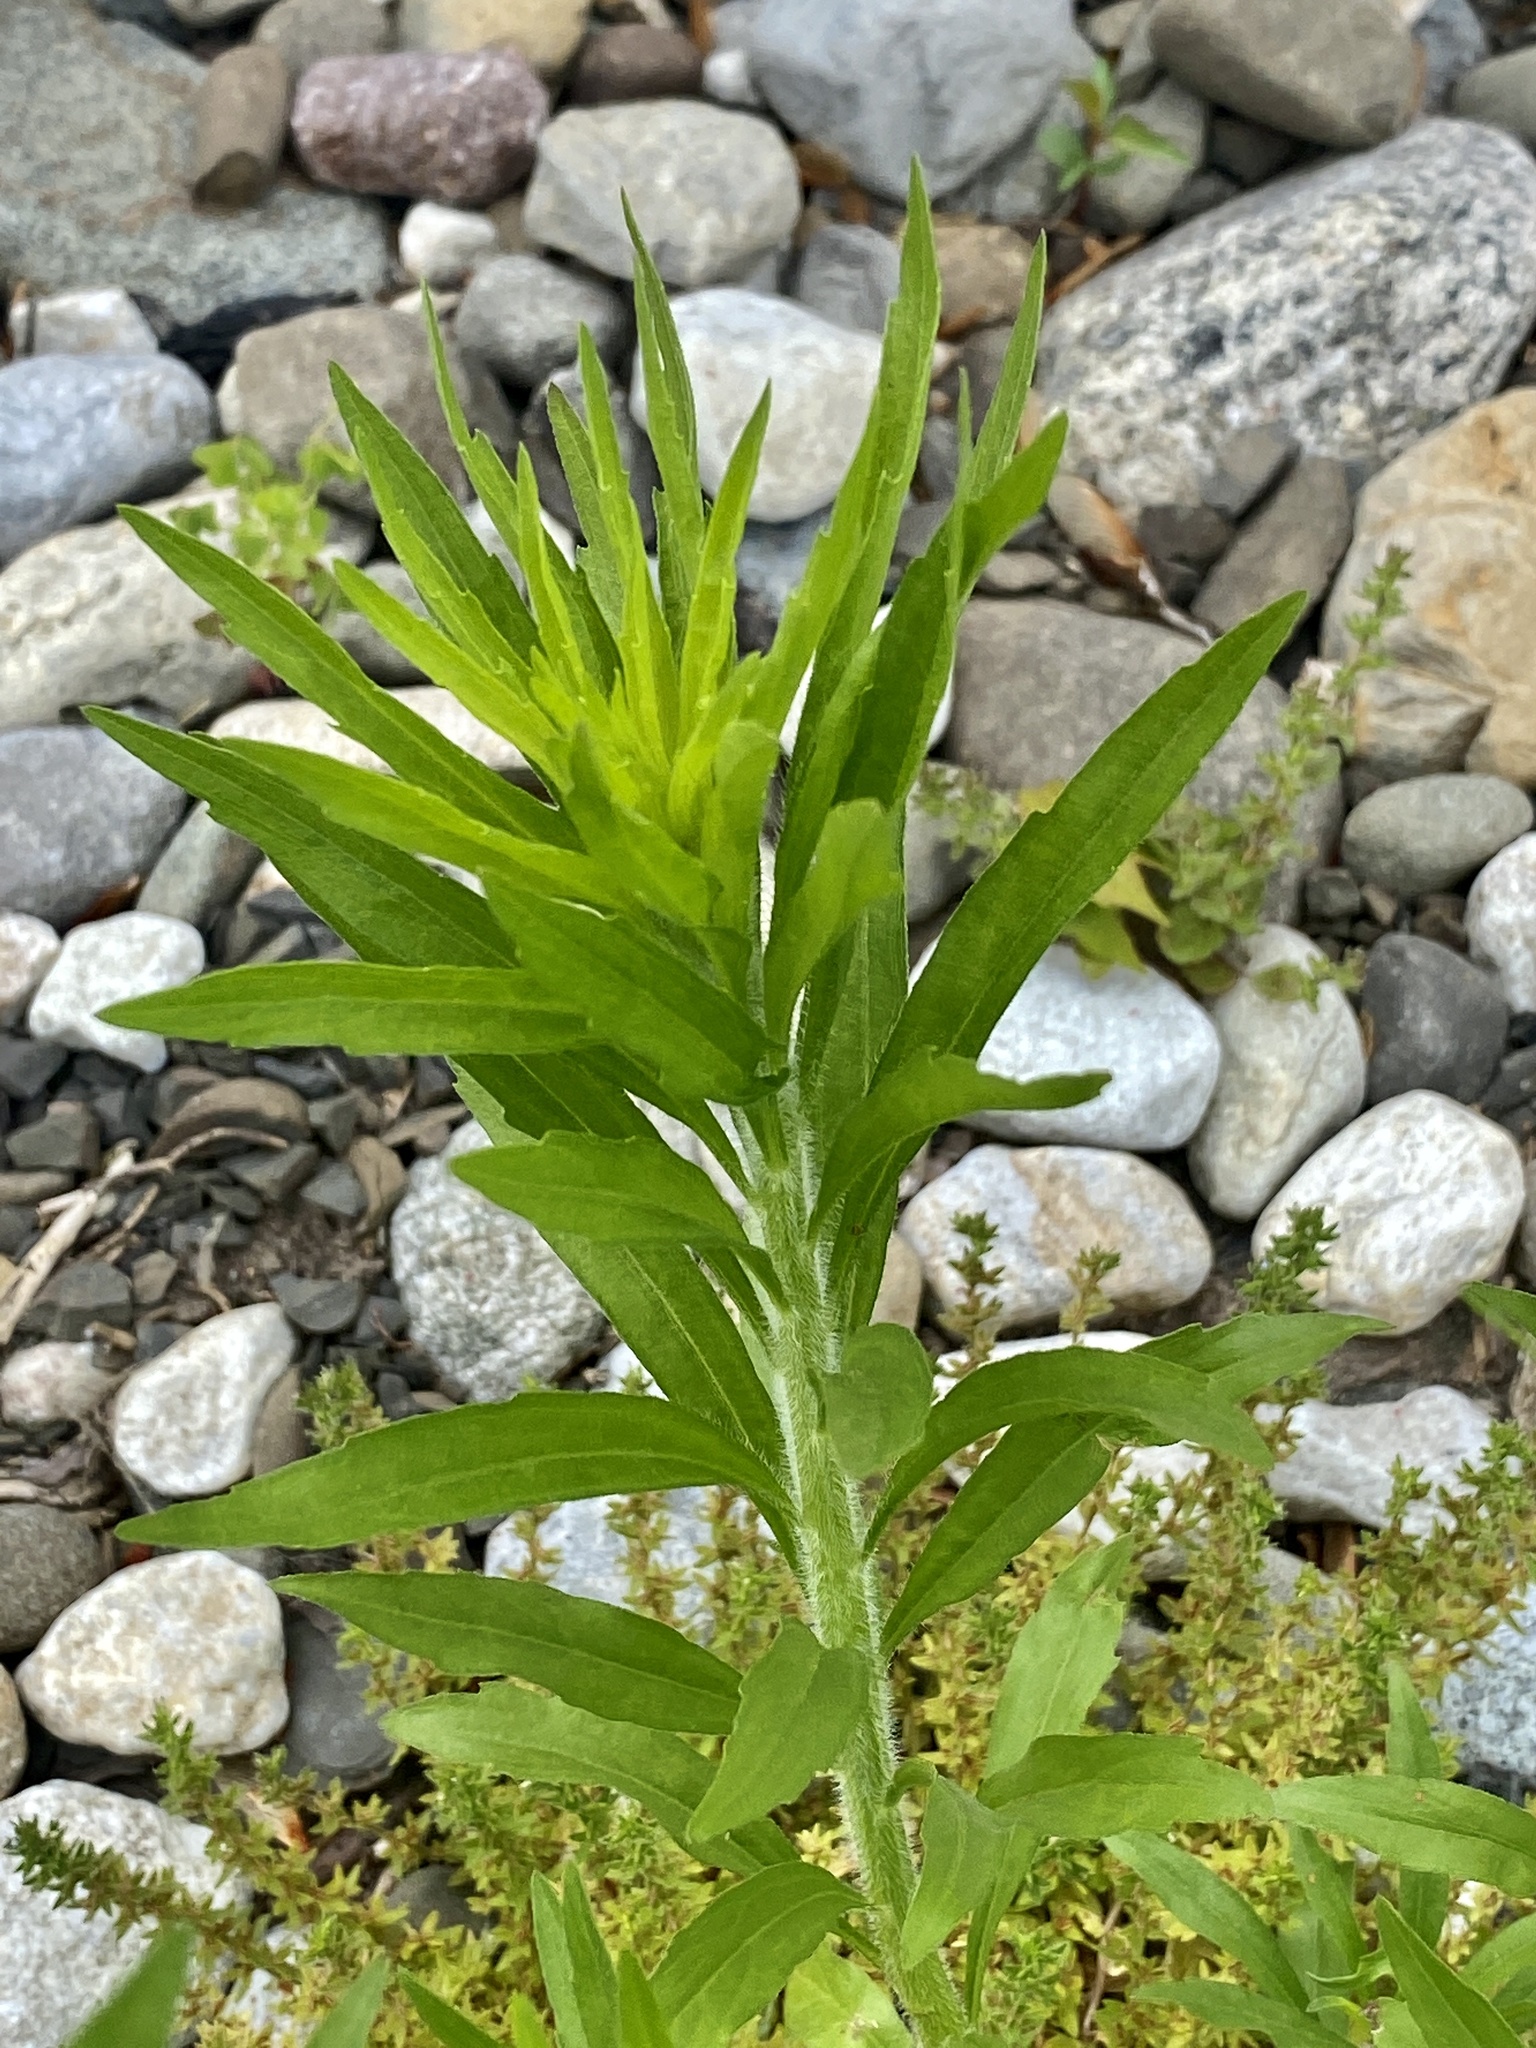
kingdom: Plantae
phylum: Tracheophyta
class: Magnoliopsida
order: Asterales
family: Asteraceae
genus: Erigeron
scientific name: Erigeron canadensis
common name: Canadian fleabane
